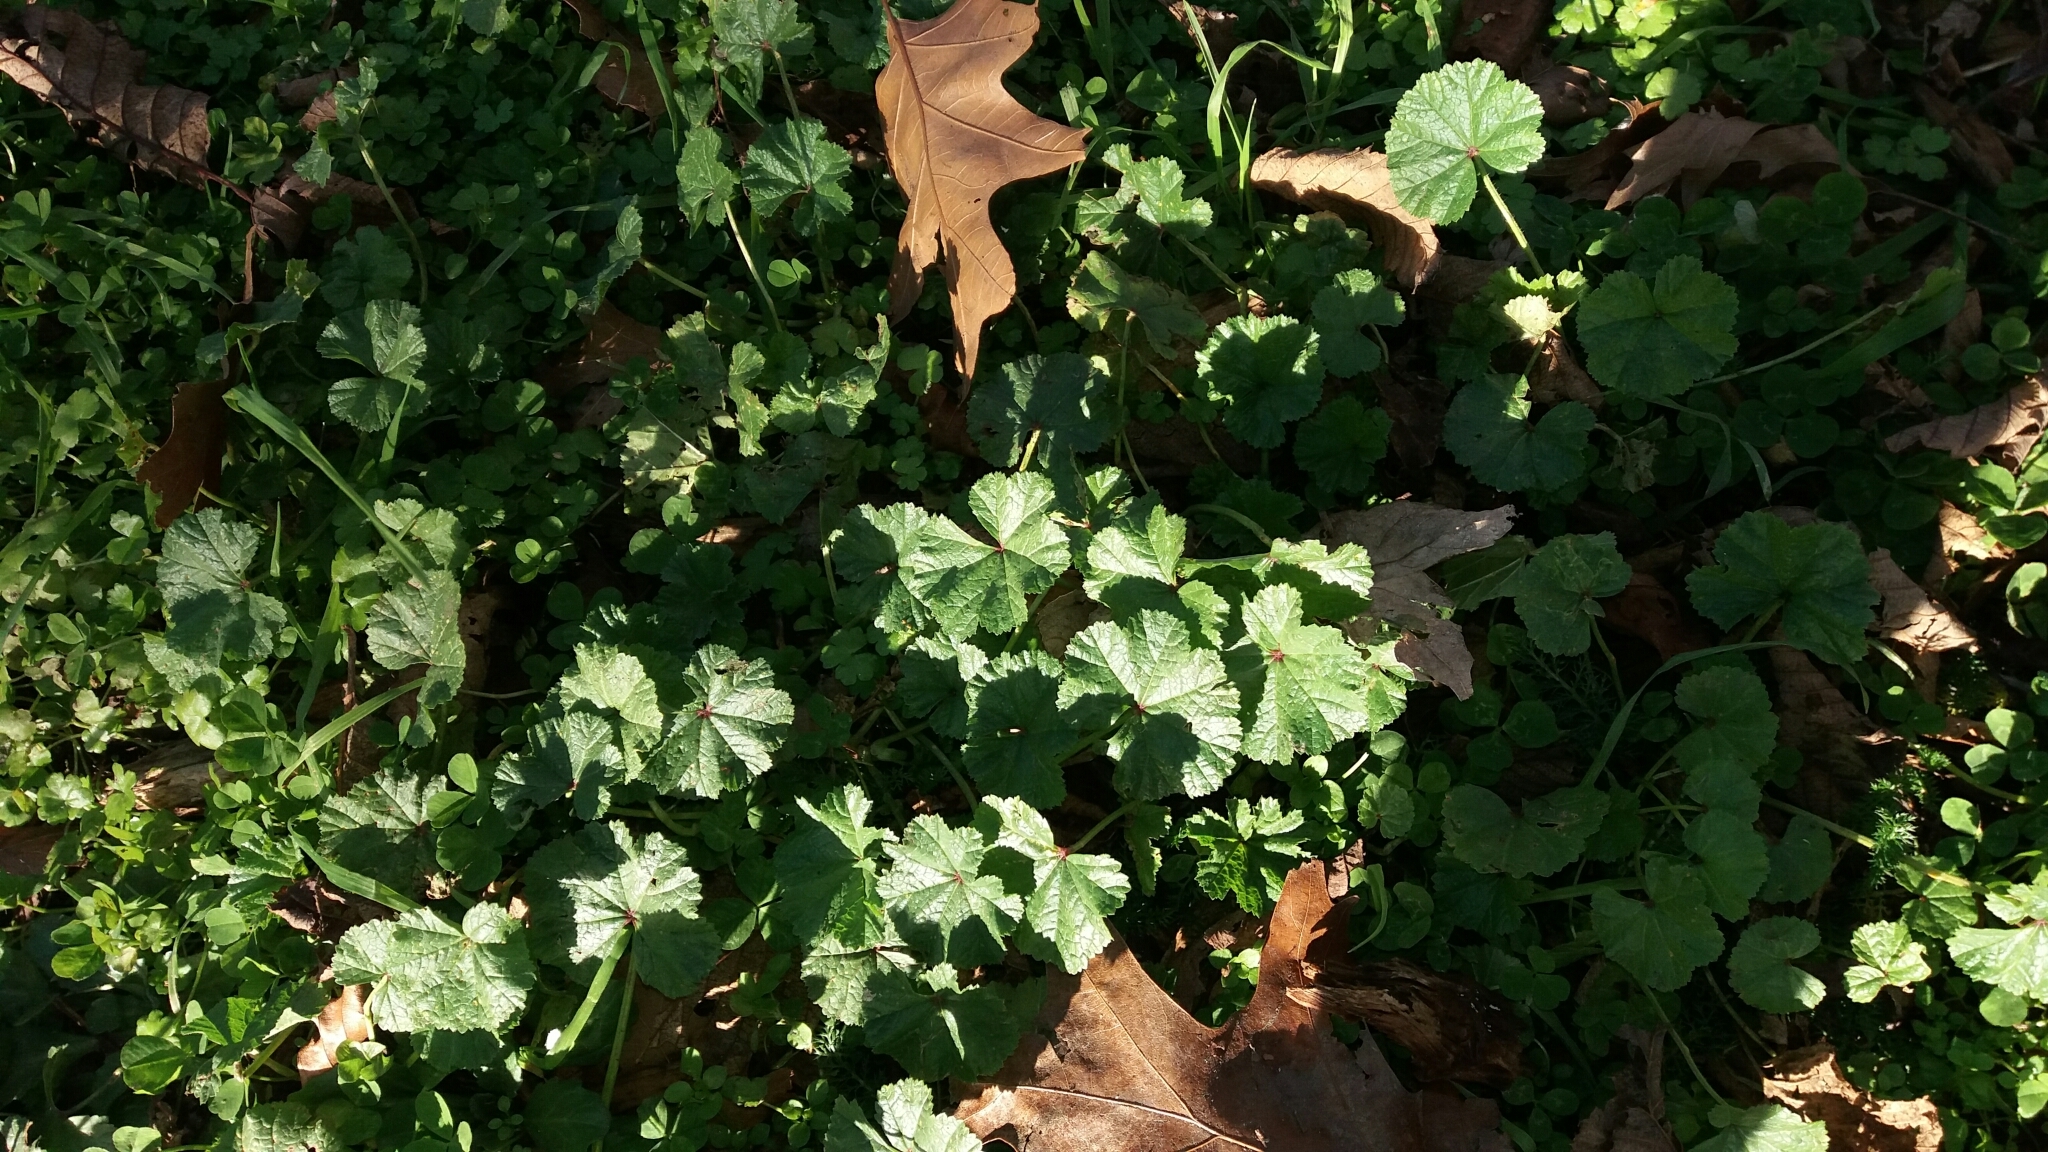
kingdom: Plantae
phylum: Tracheophyta
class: Magnoliopsida
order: Malvales
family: Malvaceae
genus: Malva
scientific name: Malva neglecta
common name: Common mallow
